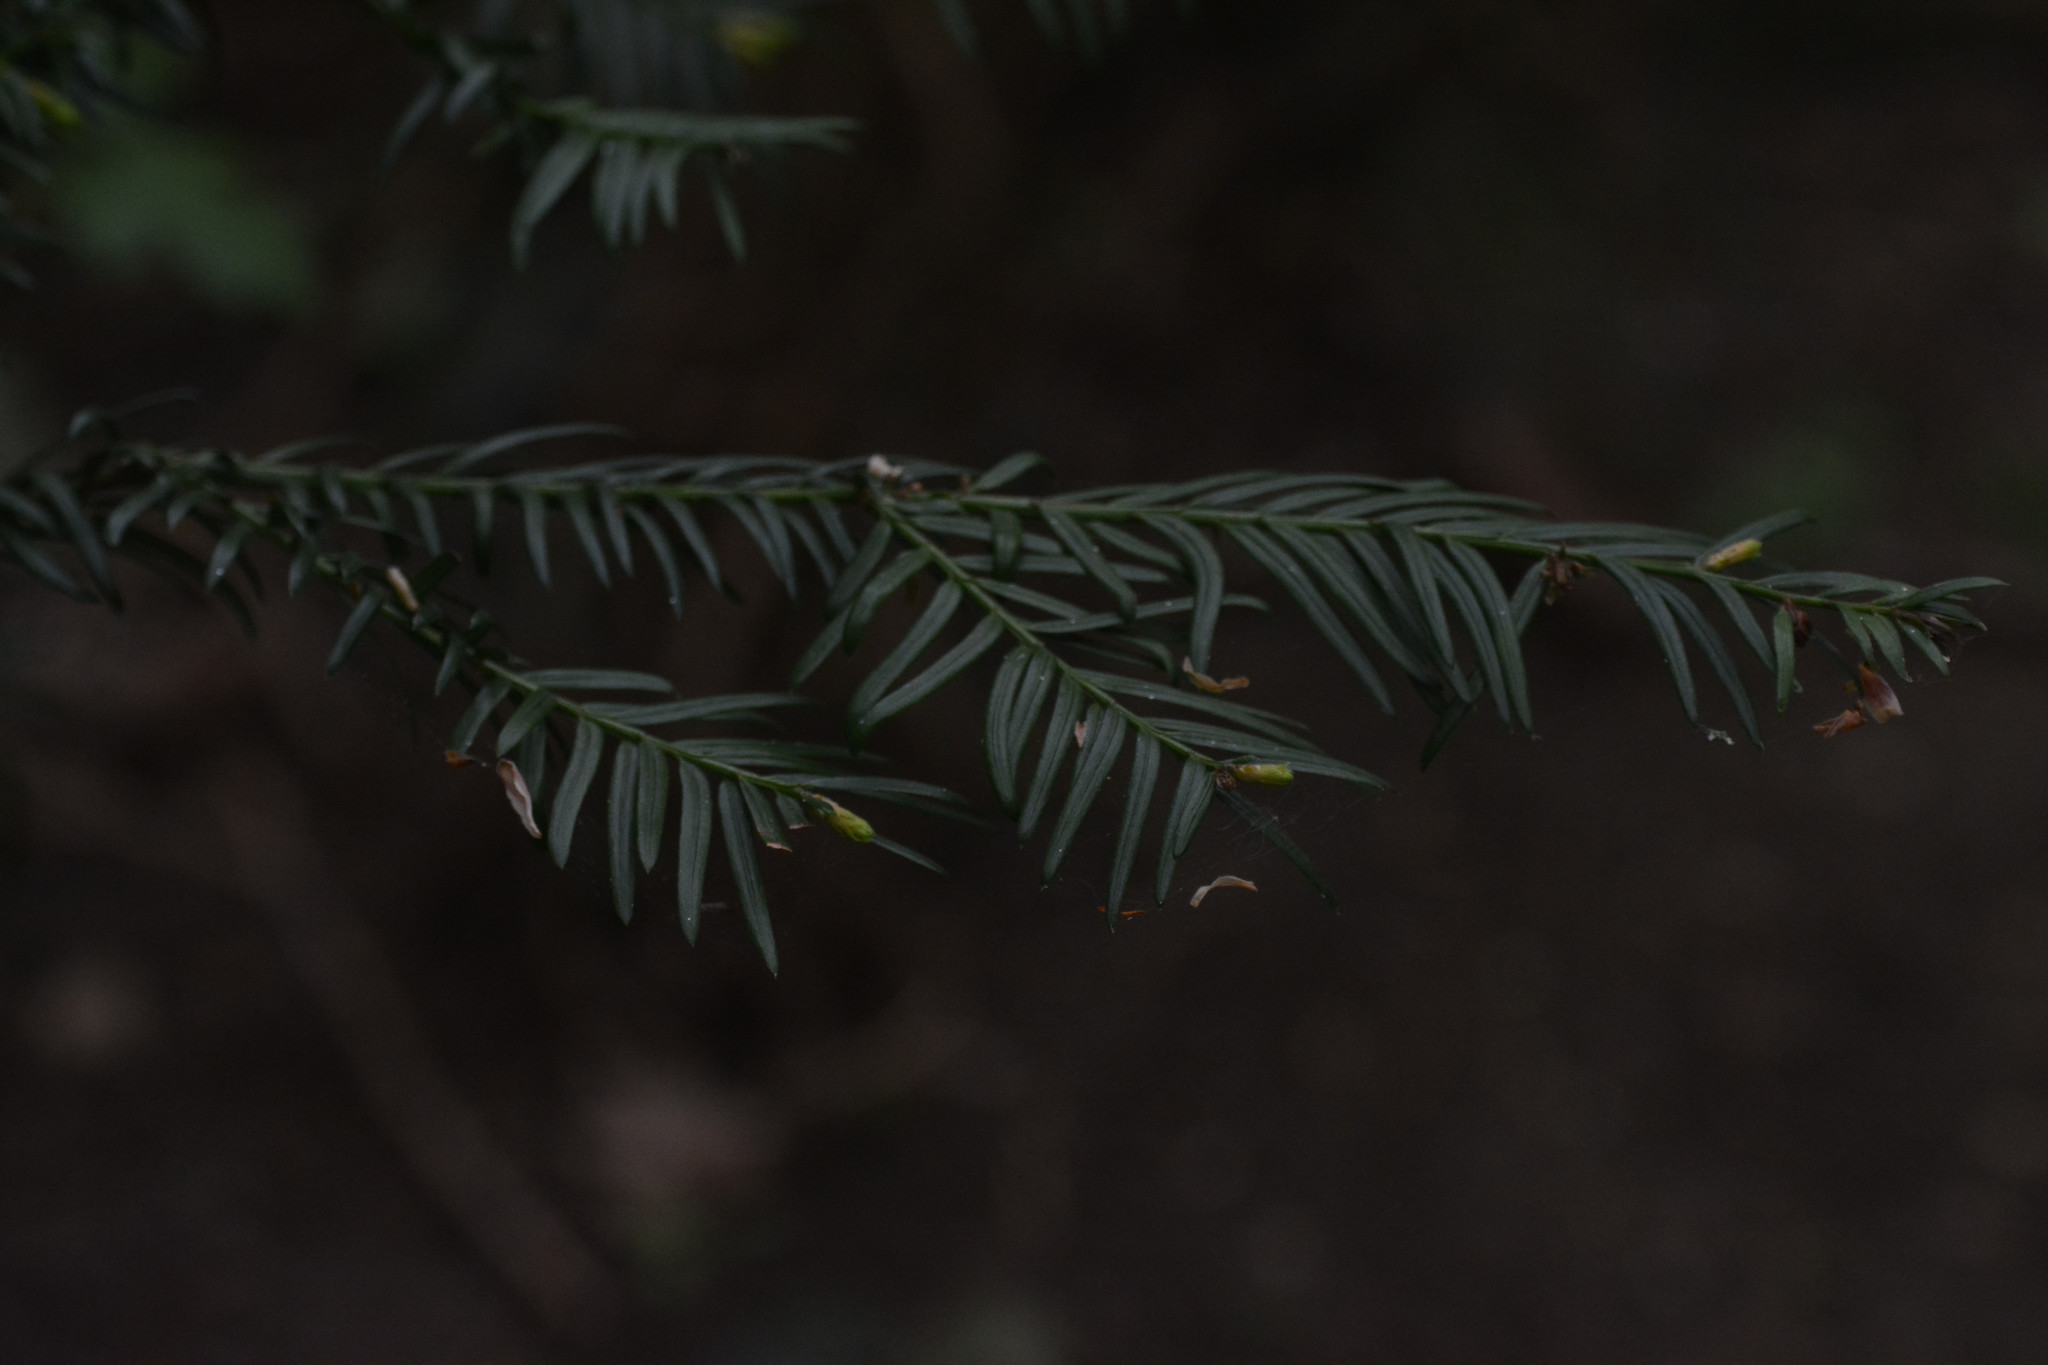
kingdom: Plantae
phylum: Tracheophyta
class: Pinopsida
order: Pinales
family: Taxaceae
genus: Taxus
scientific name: Taxus baccata
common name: Yew
